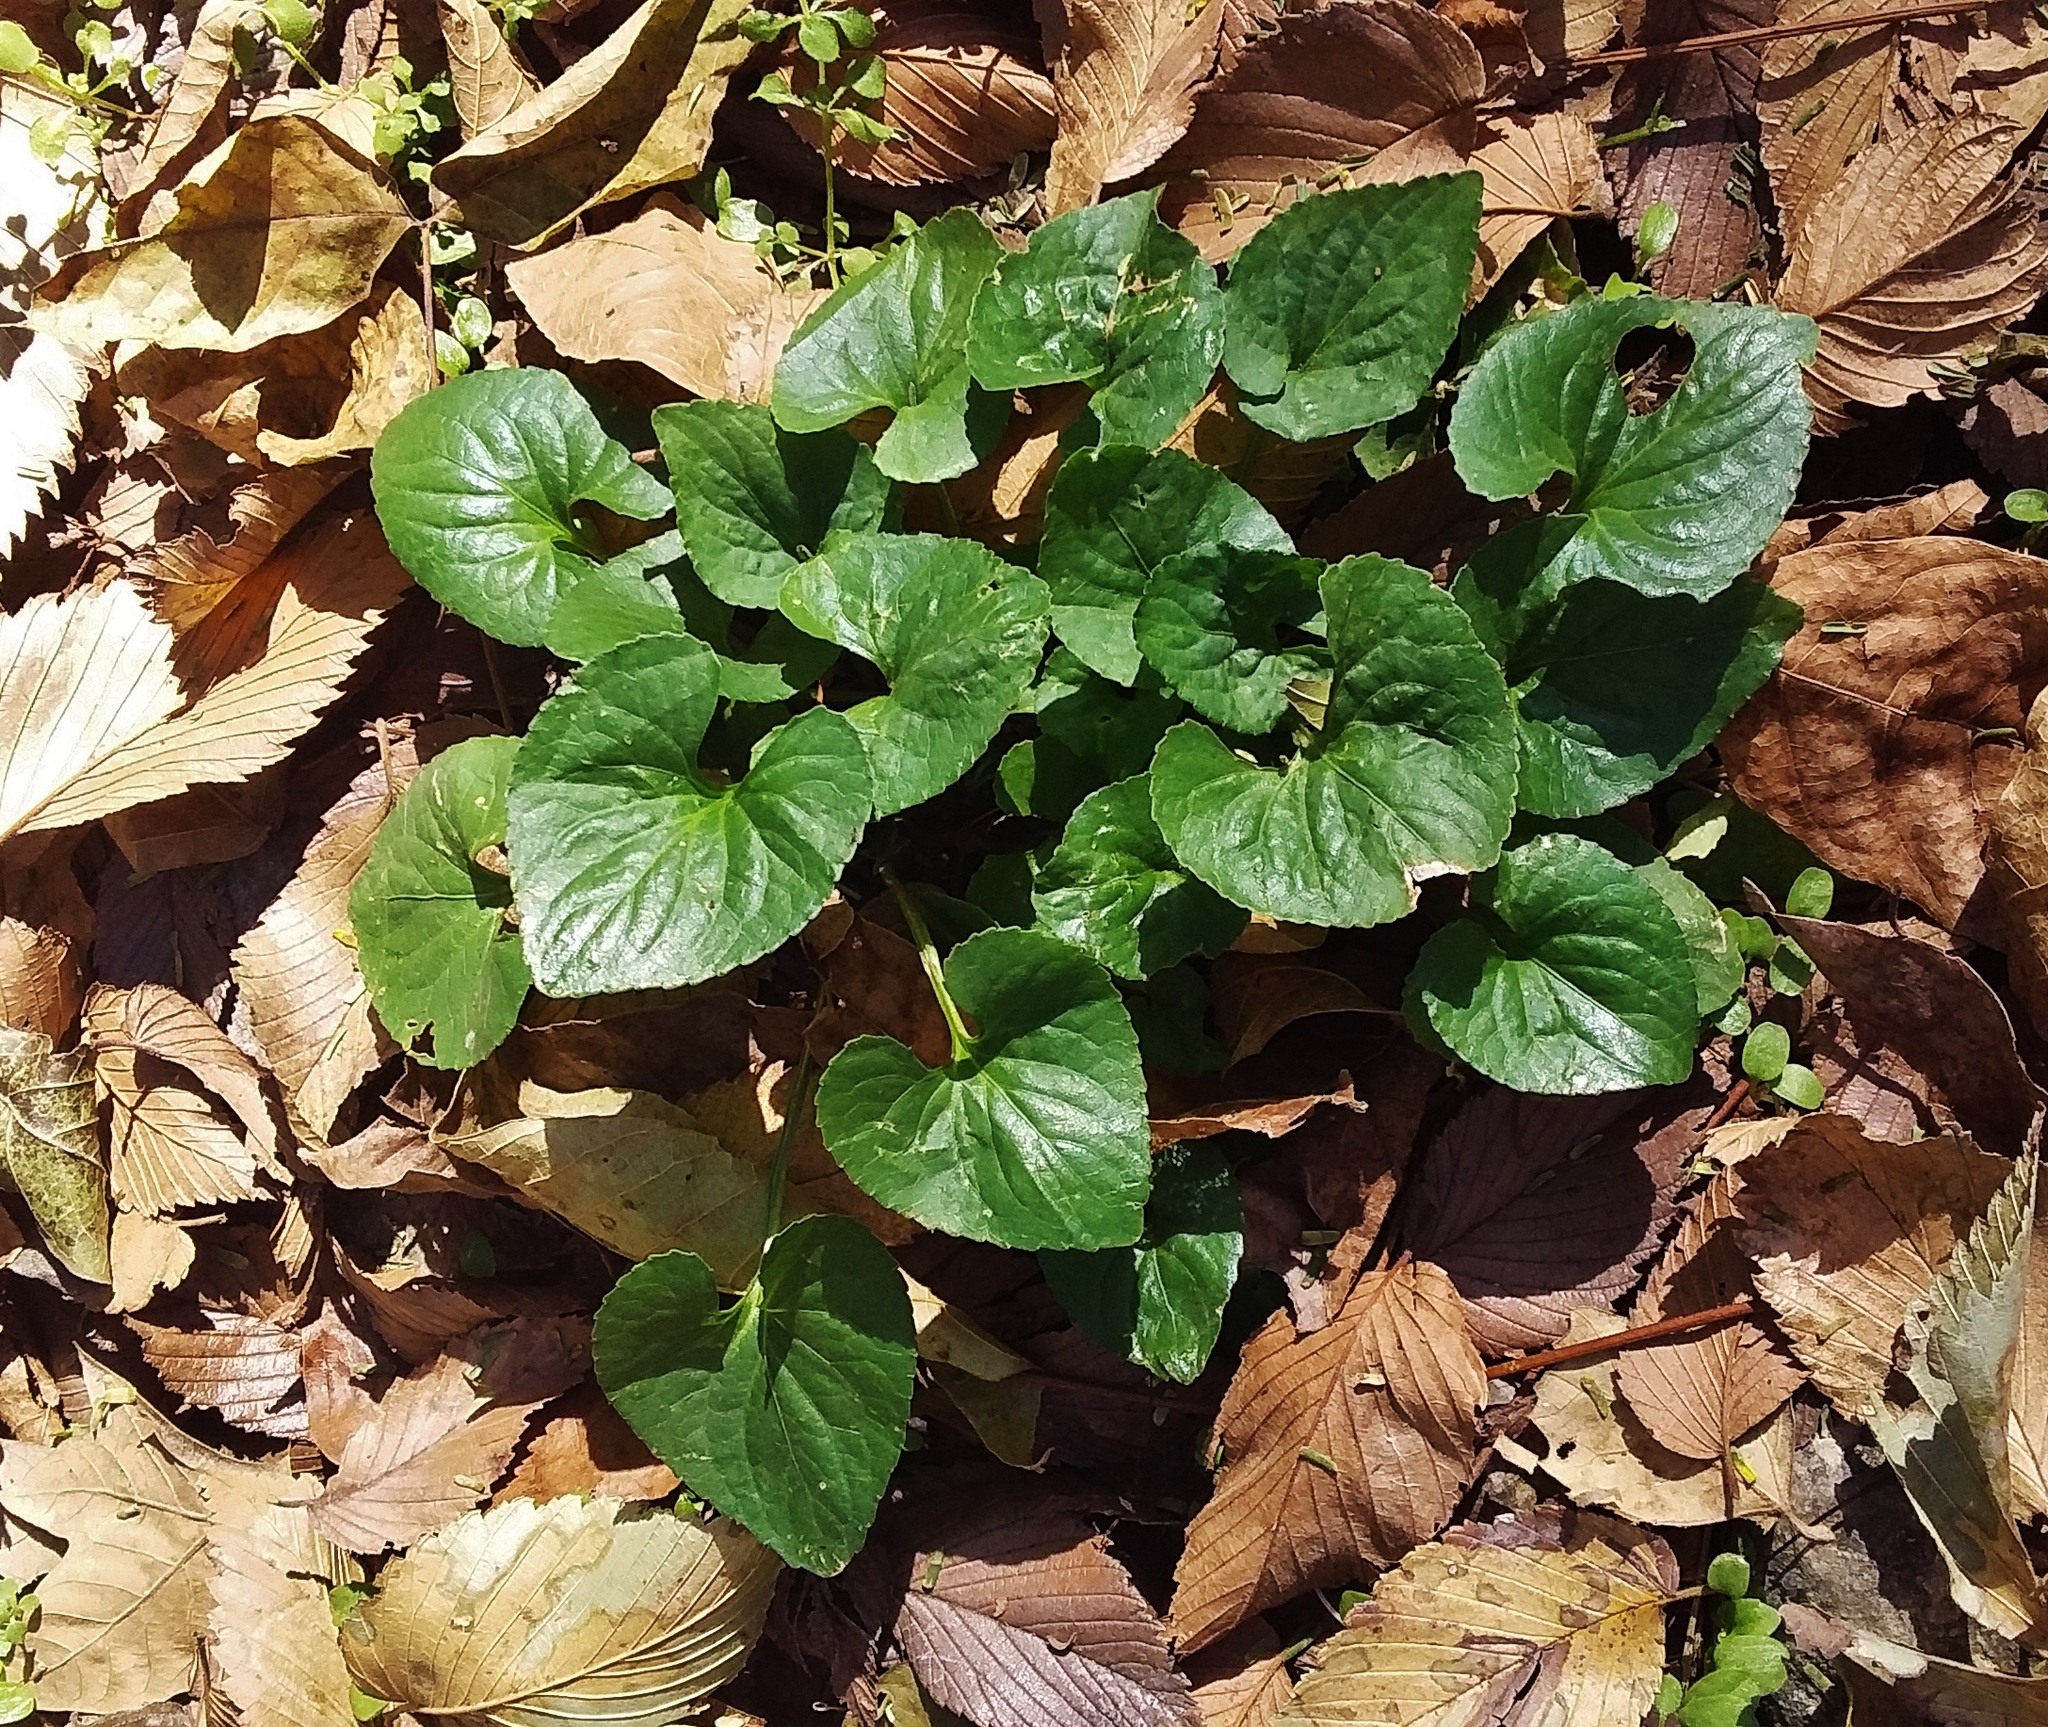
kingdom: Plantae
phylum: Tracheophyta
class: Magnoliopsida
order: Malpighiales
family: Violaceae
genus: Viola
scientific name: Viola sororia
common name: Dooryard violet
